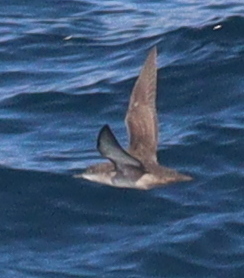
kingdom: Animalia
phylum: Chordata
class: Aves
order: Procellariiformes
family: Procellariidae
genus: Puffinus
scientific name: Puffinus mauretanicus
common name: Balearic shearwater
